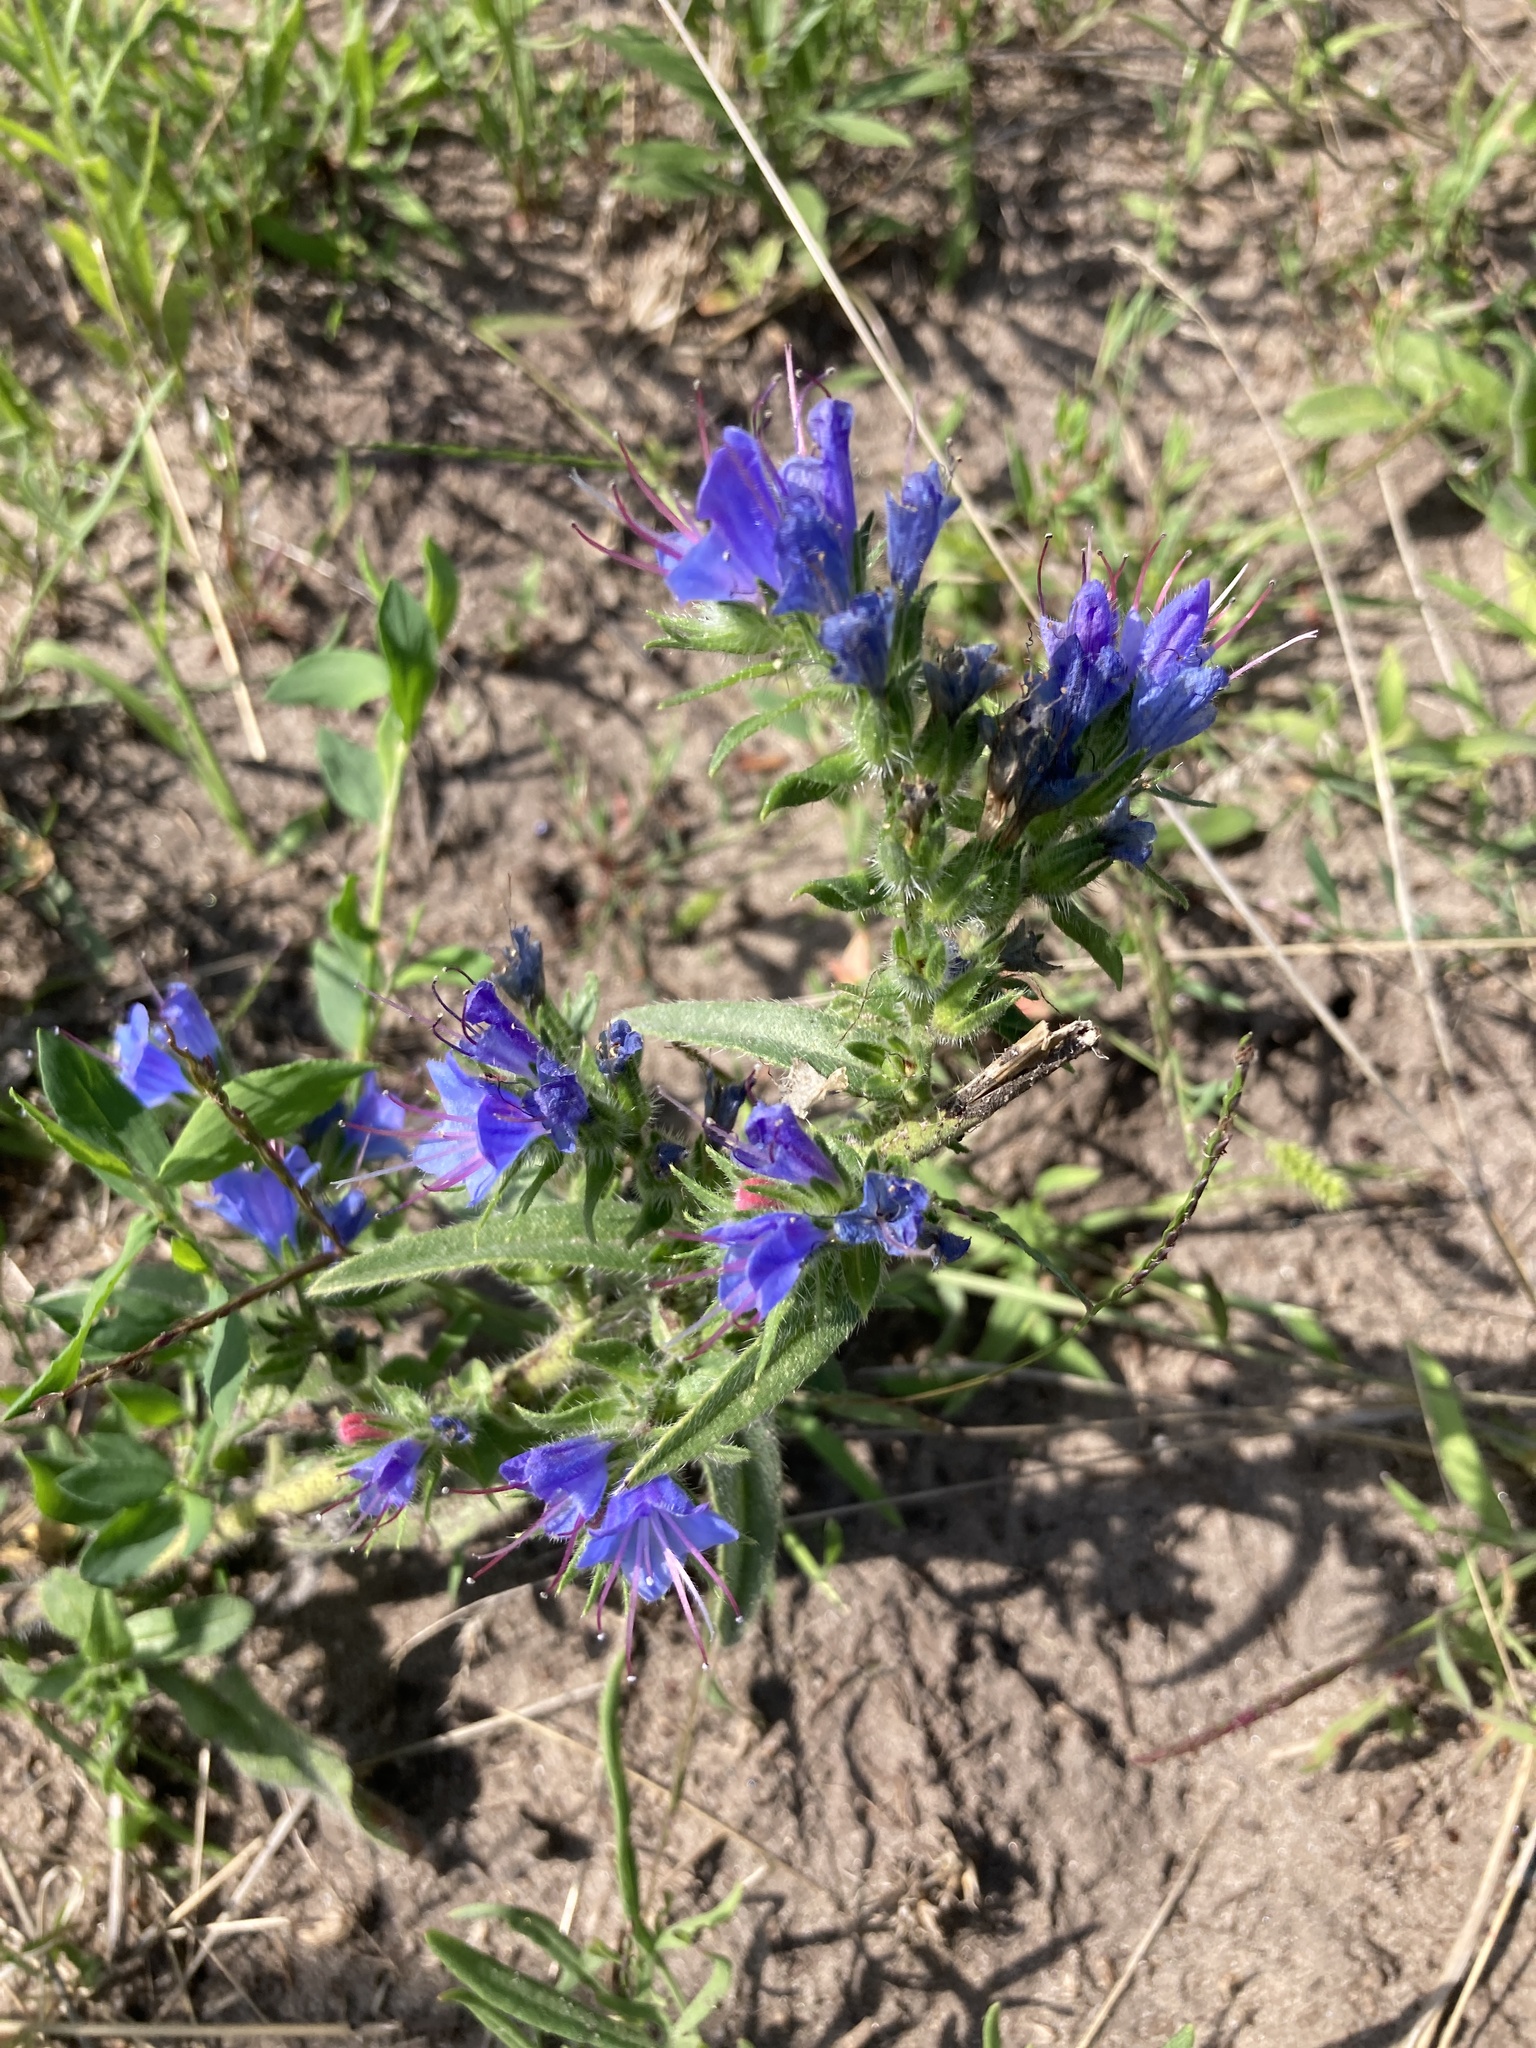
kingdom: Plantae
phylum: Tracheophyta
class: Magnoliopsida
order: Boraginales
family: Boraginaceae
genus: Echium
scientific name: Echium vulgare
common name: Common viper's bugloss
